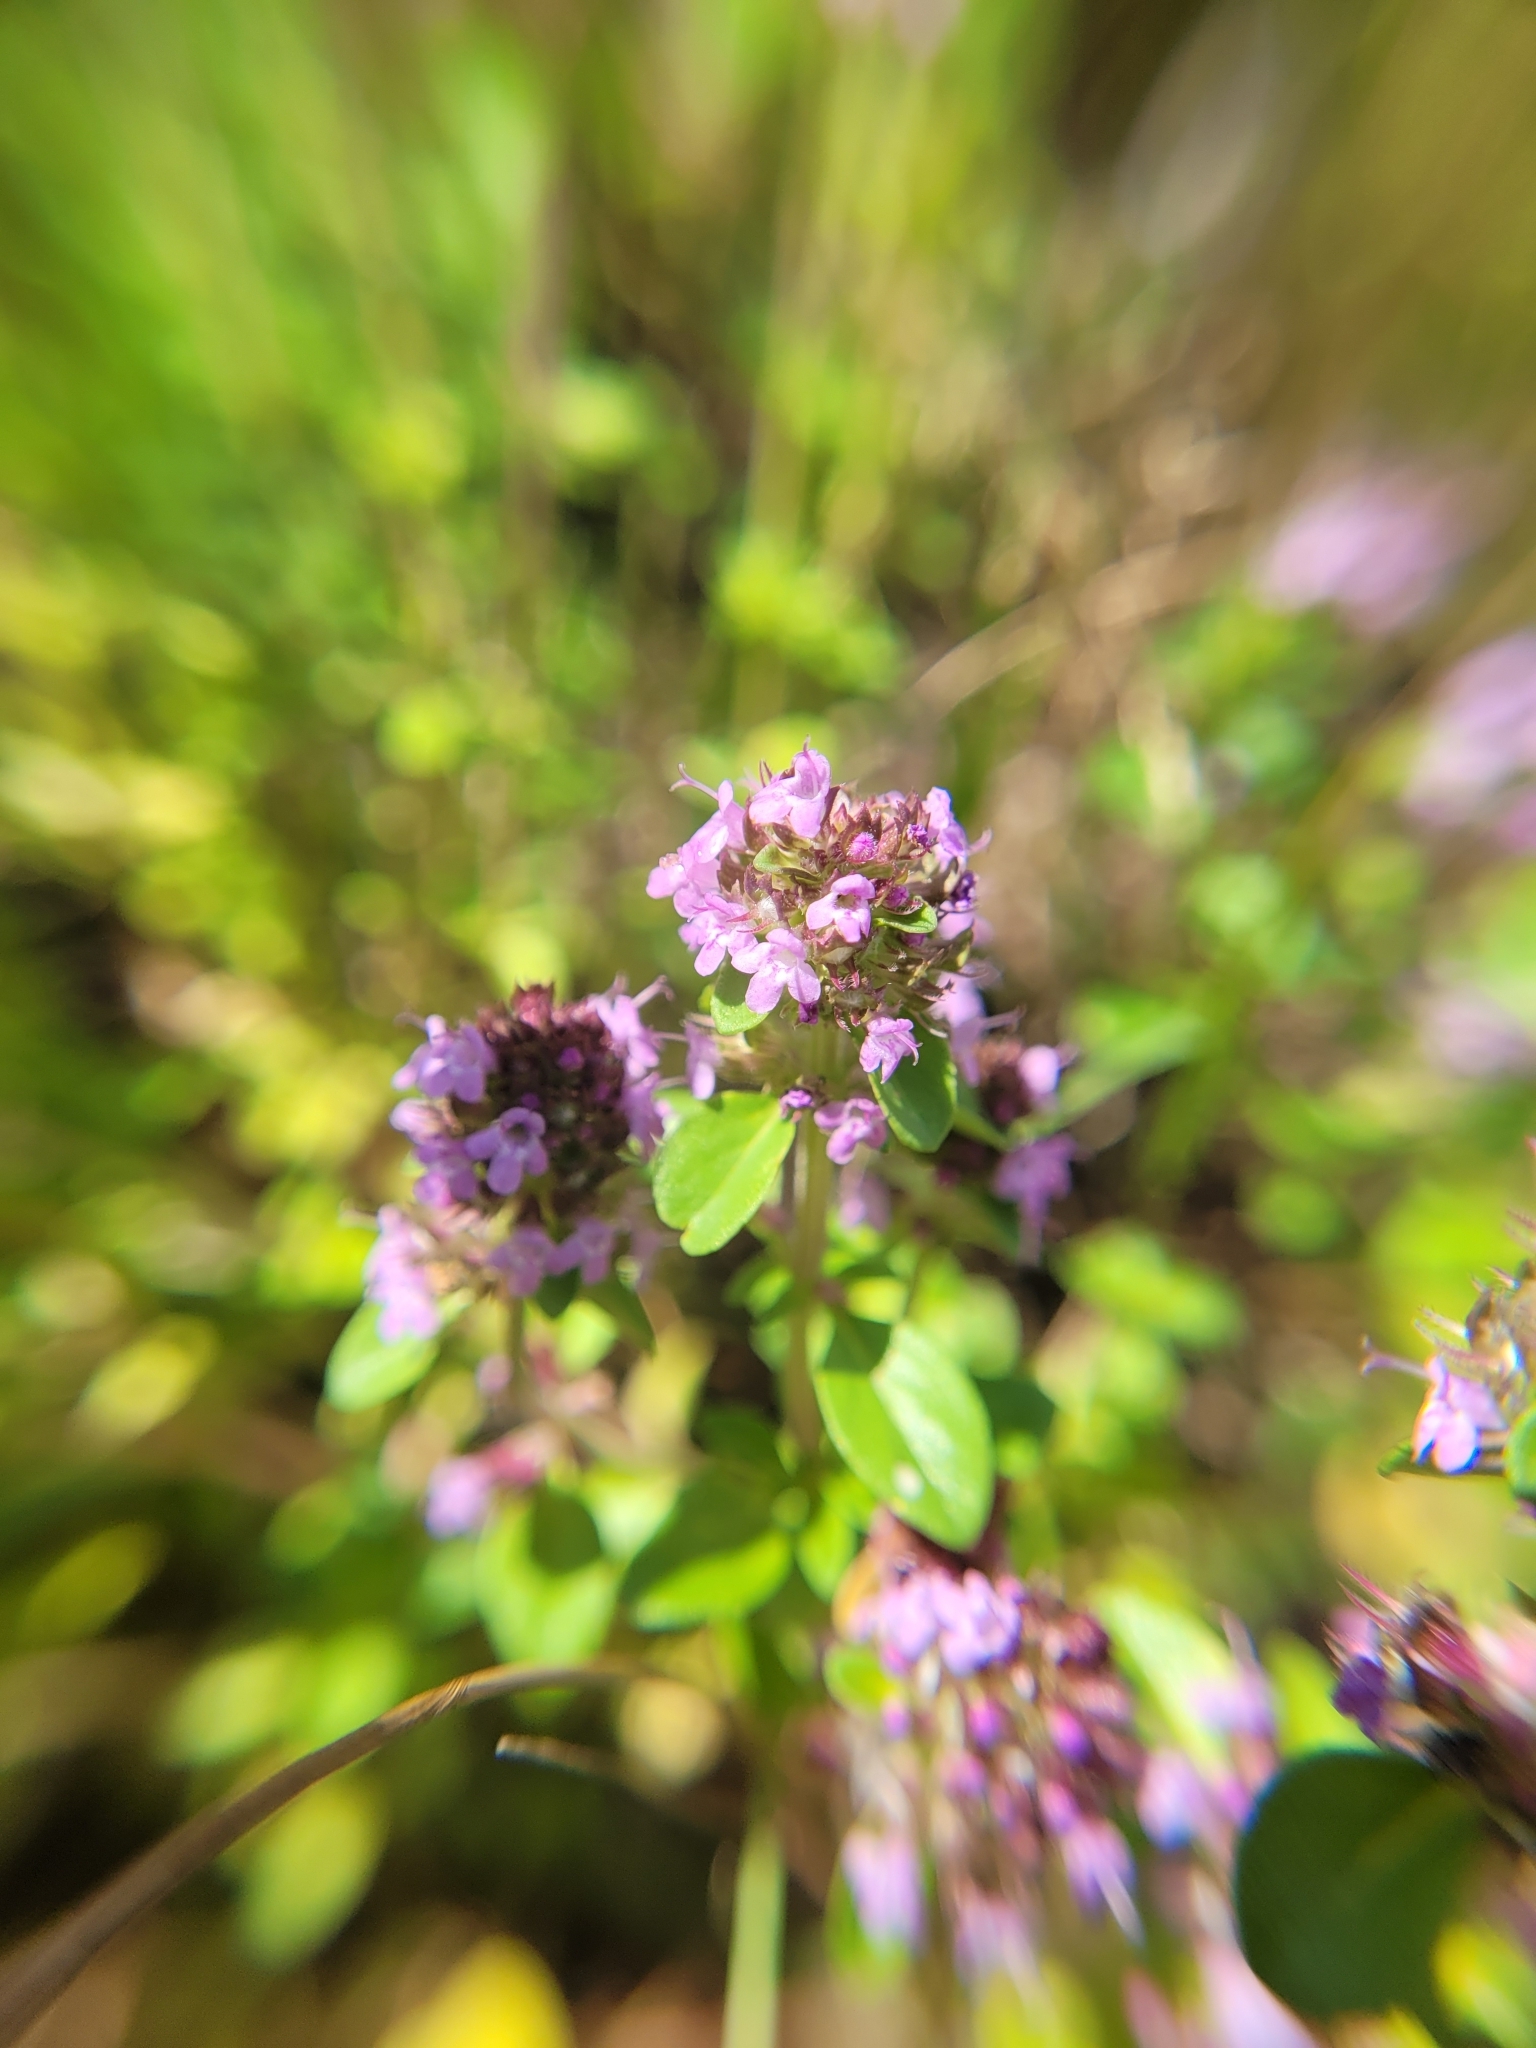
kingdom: Plantae
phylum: Tracheophyta
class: Magnoliopsida
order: Lamiales
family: Lamiaceae
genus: Thymus
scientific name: Thymus pulegioides
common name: Large thyme
